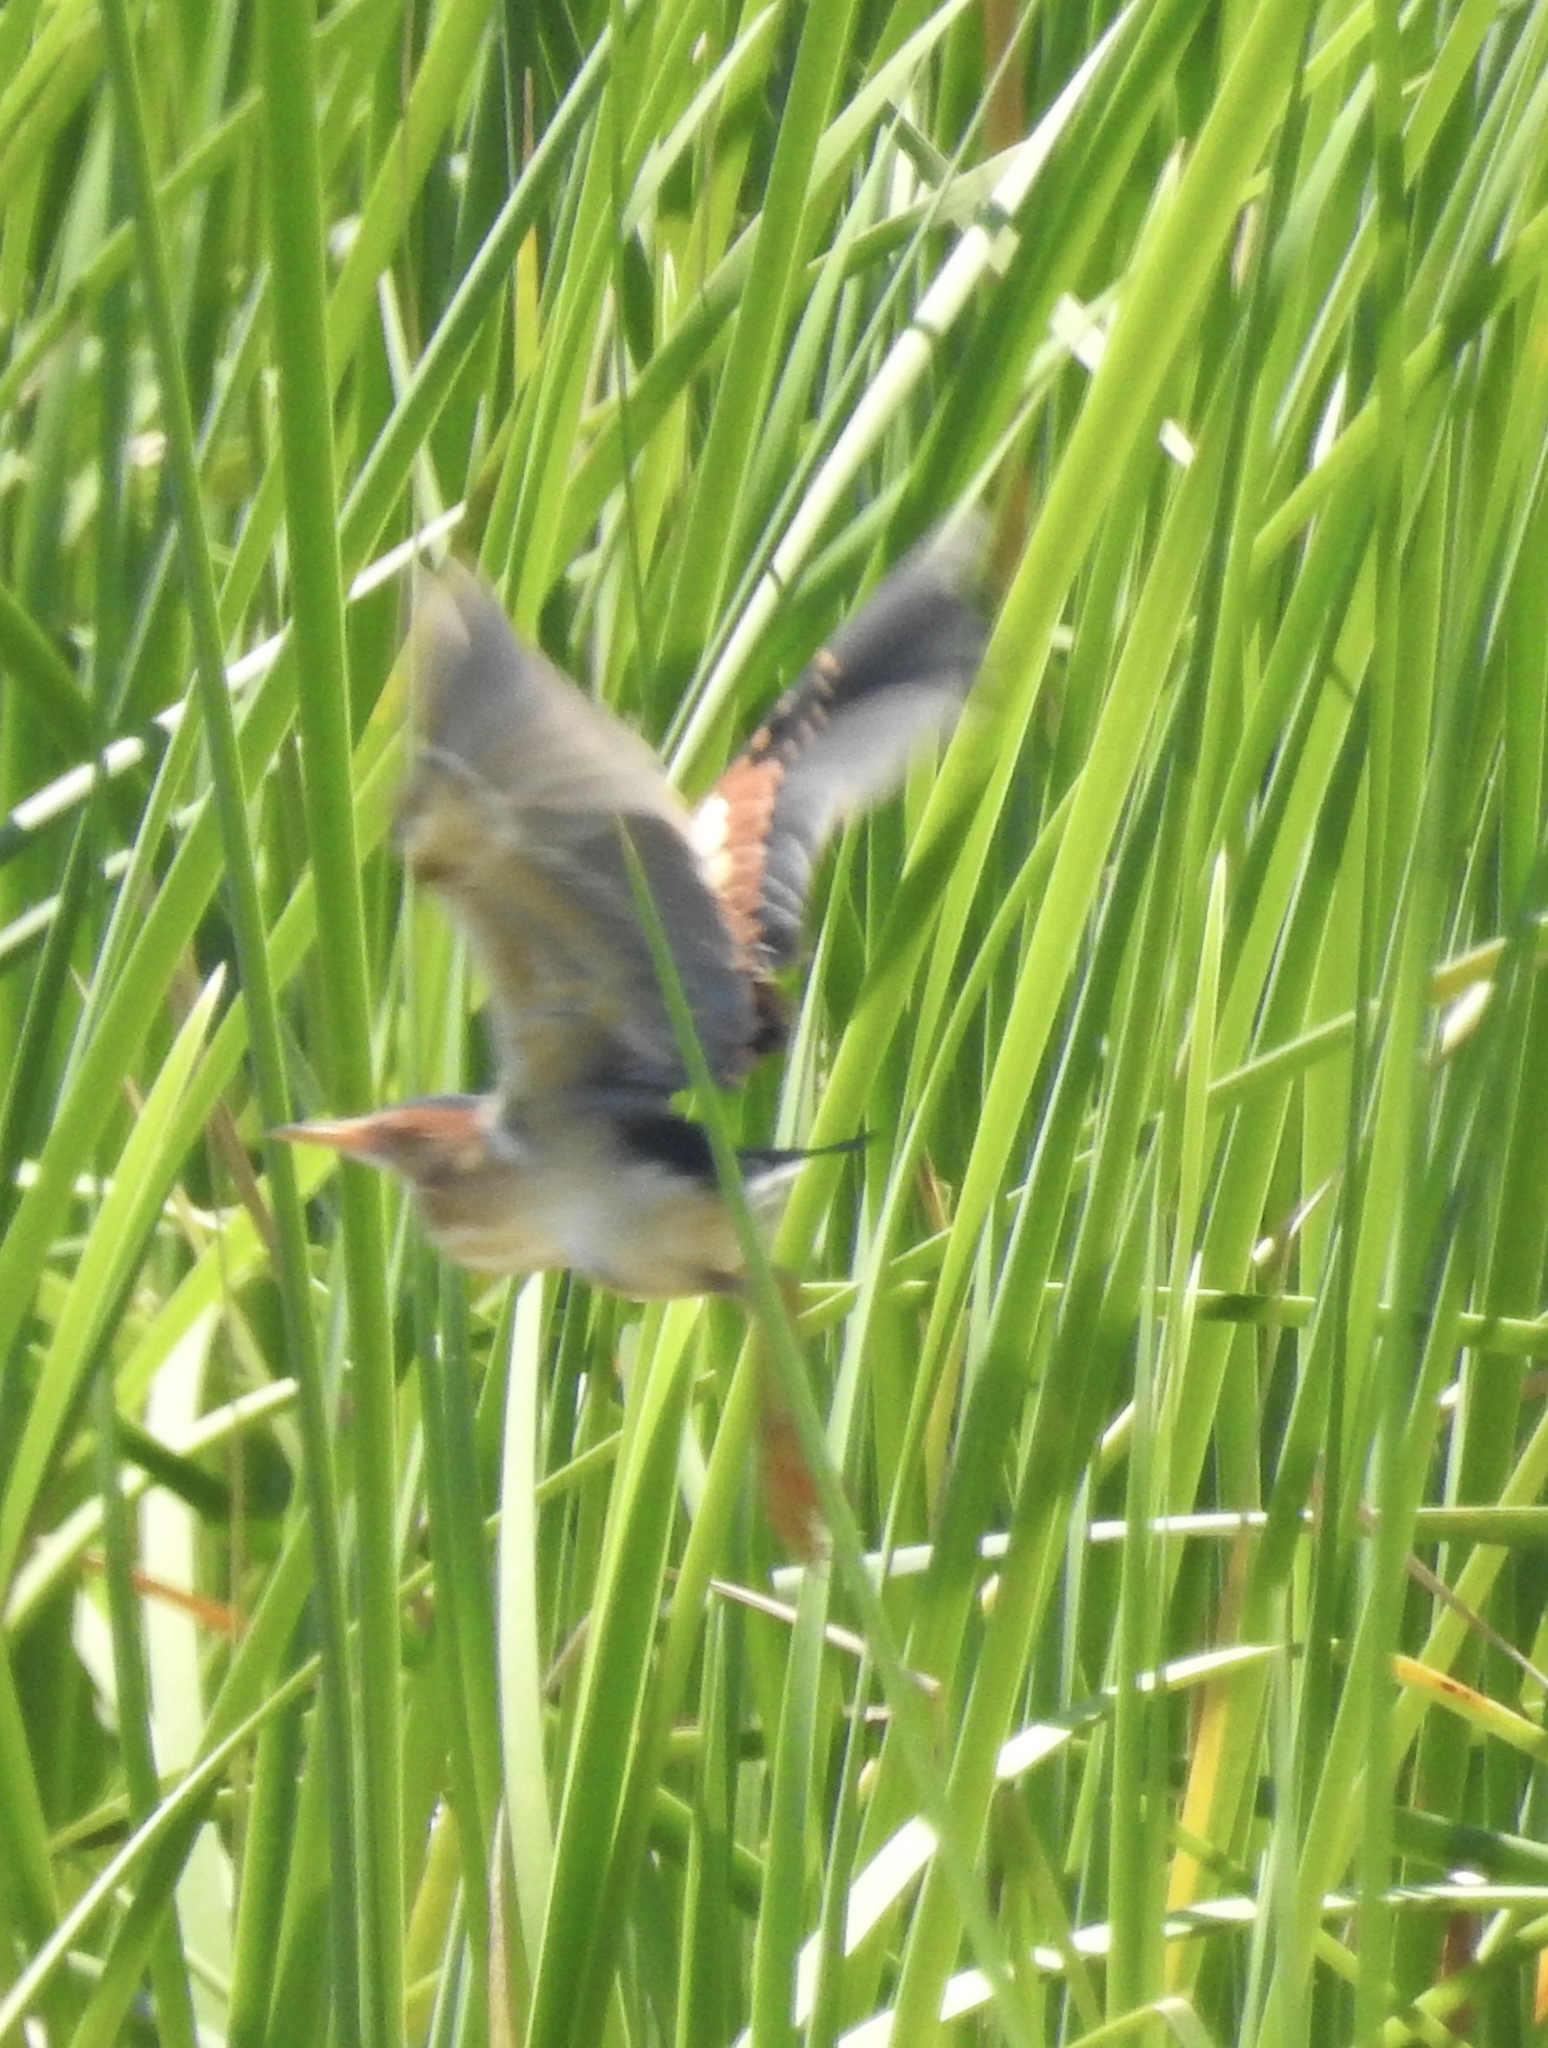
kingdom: Animalia
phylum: Chordata
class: Aves
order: Pelecaniformes
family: Ardeidae
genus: Ixobrychus
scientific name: Ixobrychus exilis
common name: Least bittern
